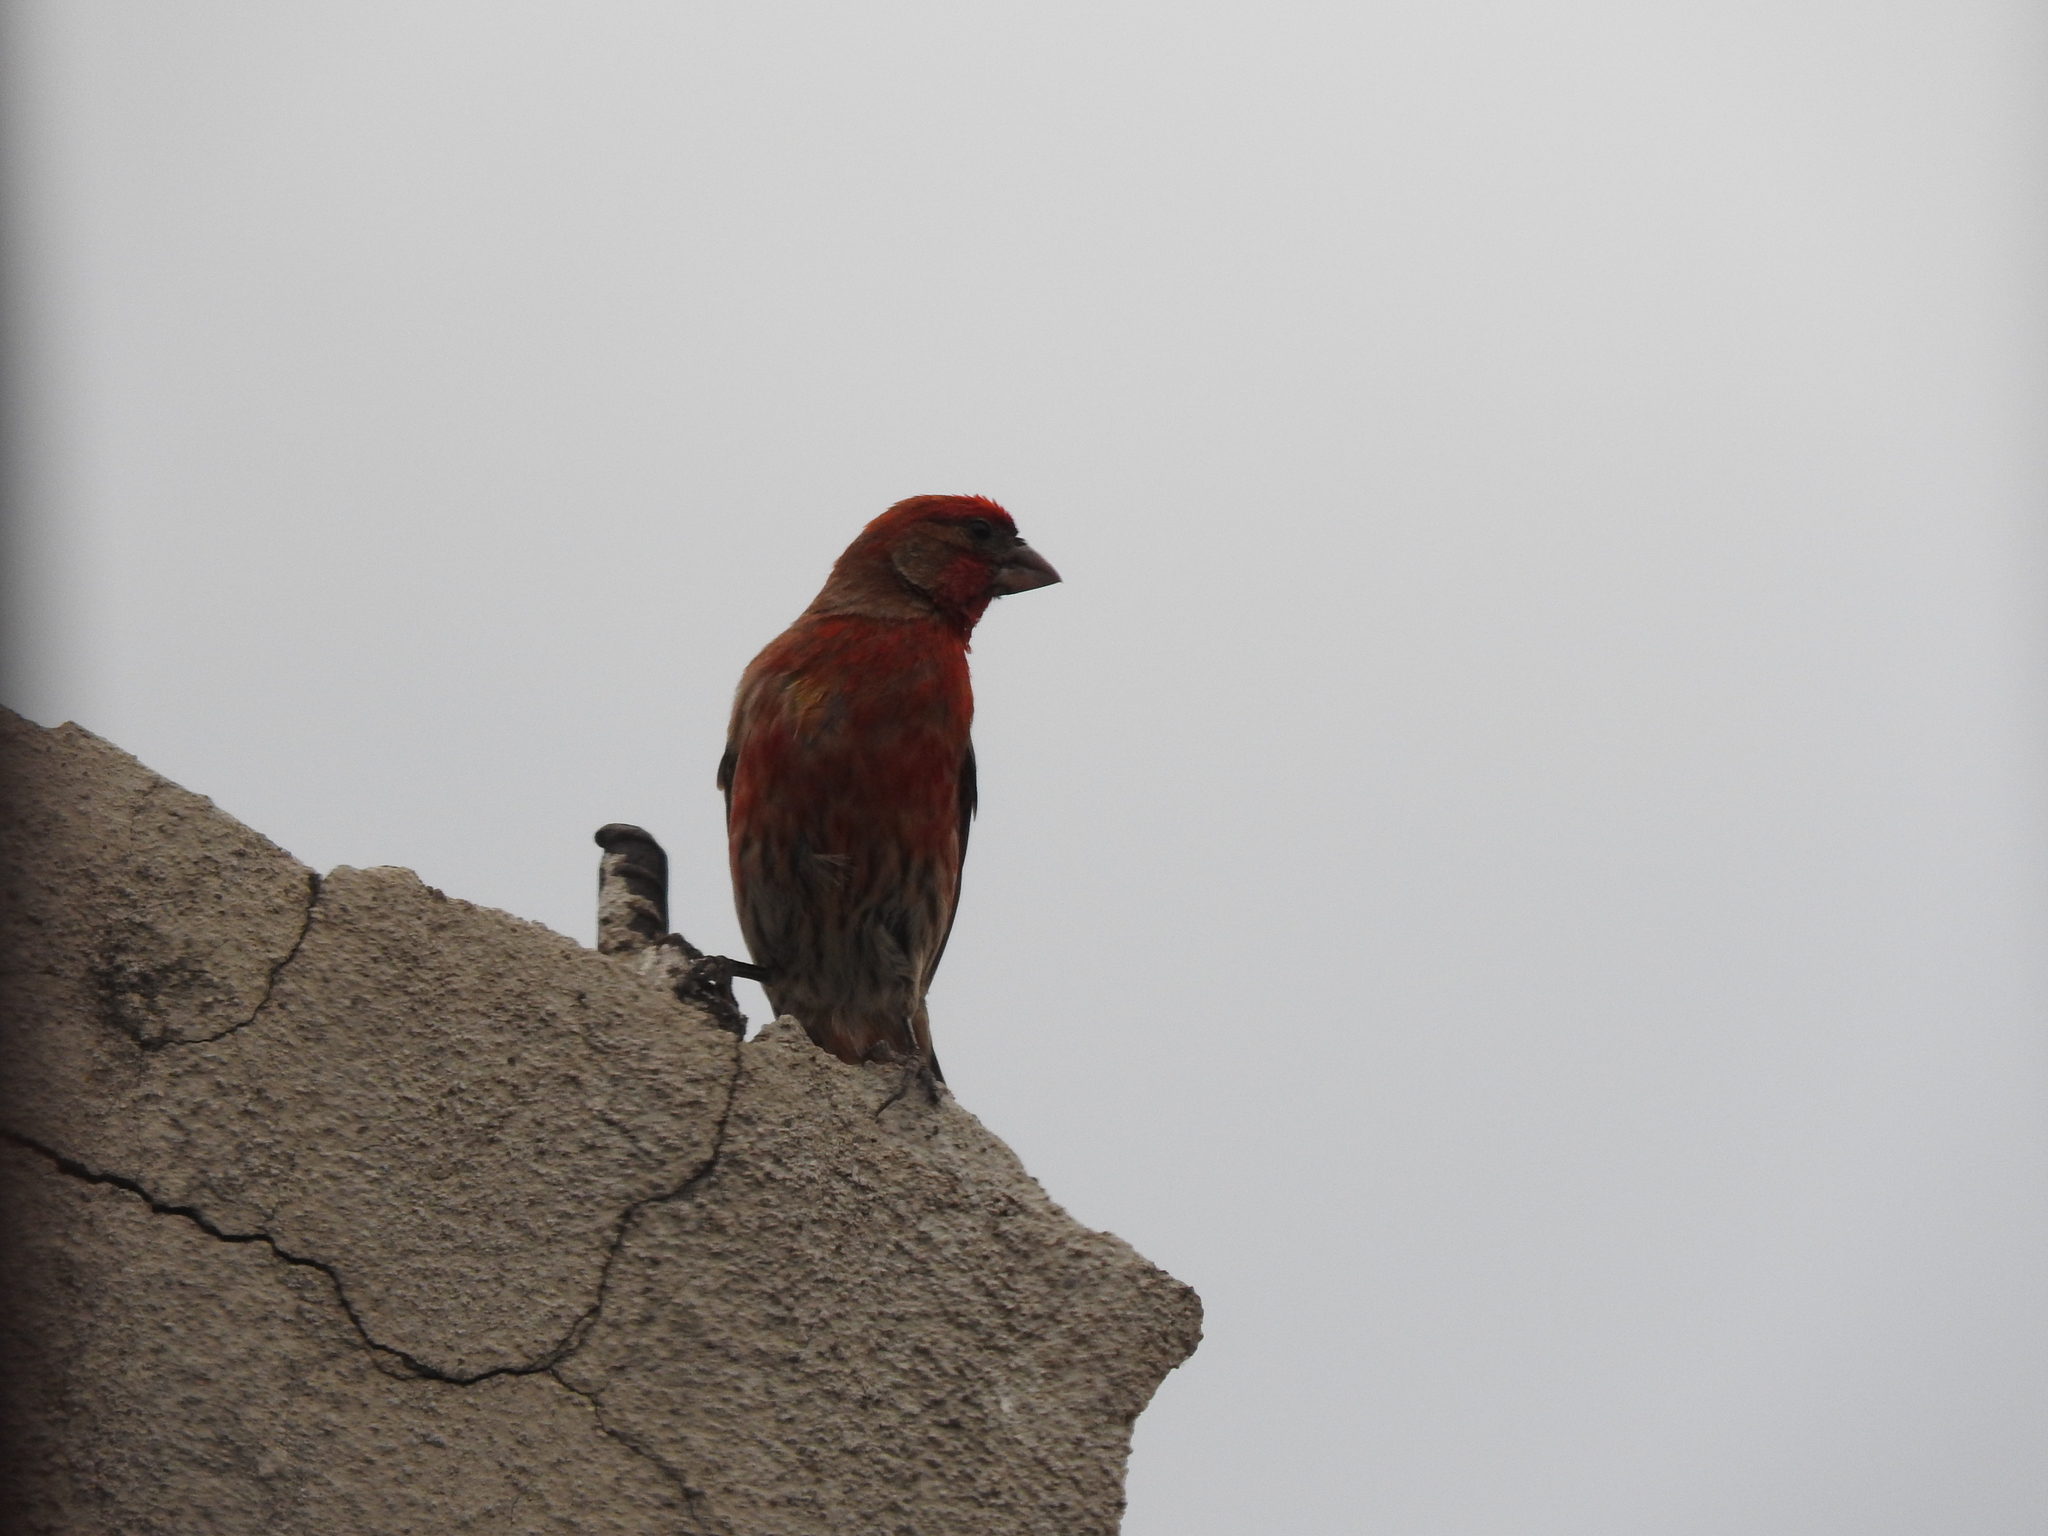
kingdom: Animalia
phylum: Chordata
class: Aves
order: Passeriformes
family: Fringillidae
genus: Haemorhous
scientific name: Haemorhous mexicanus
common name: House finch
